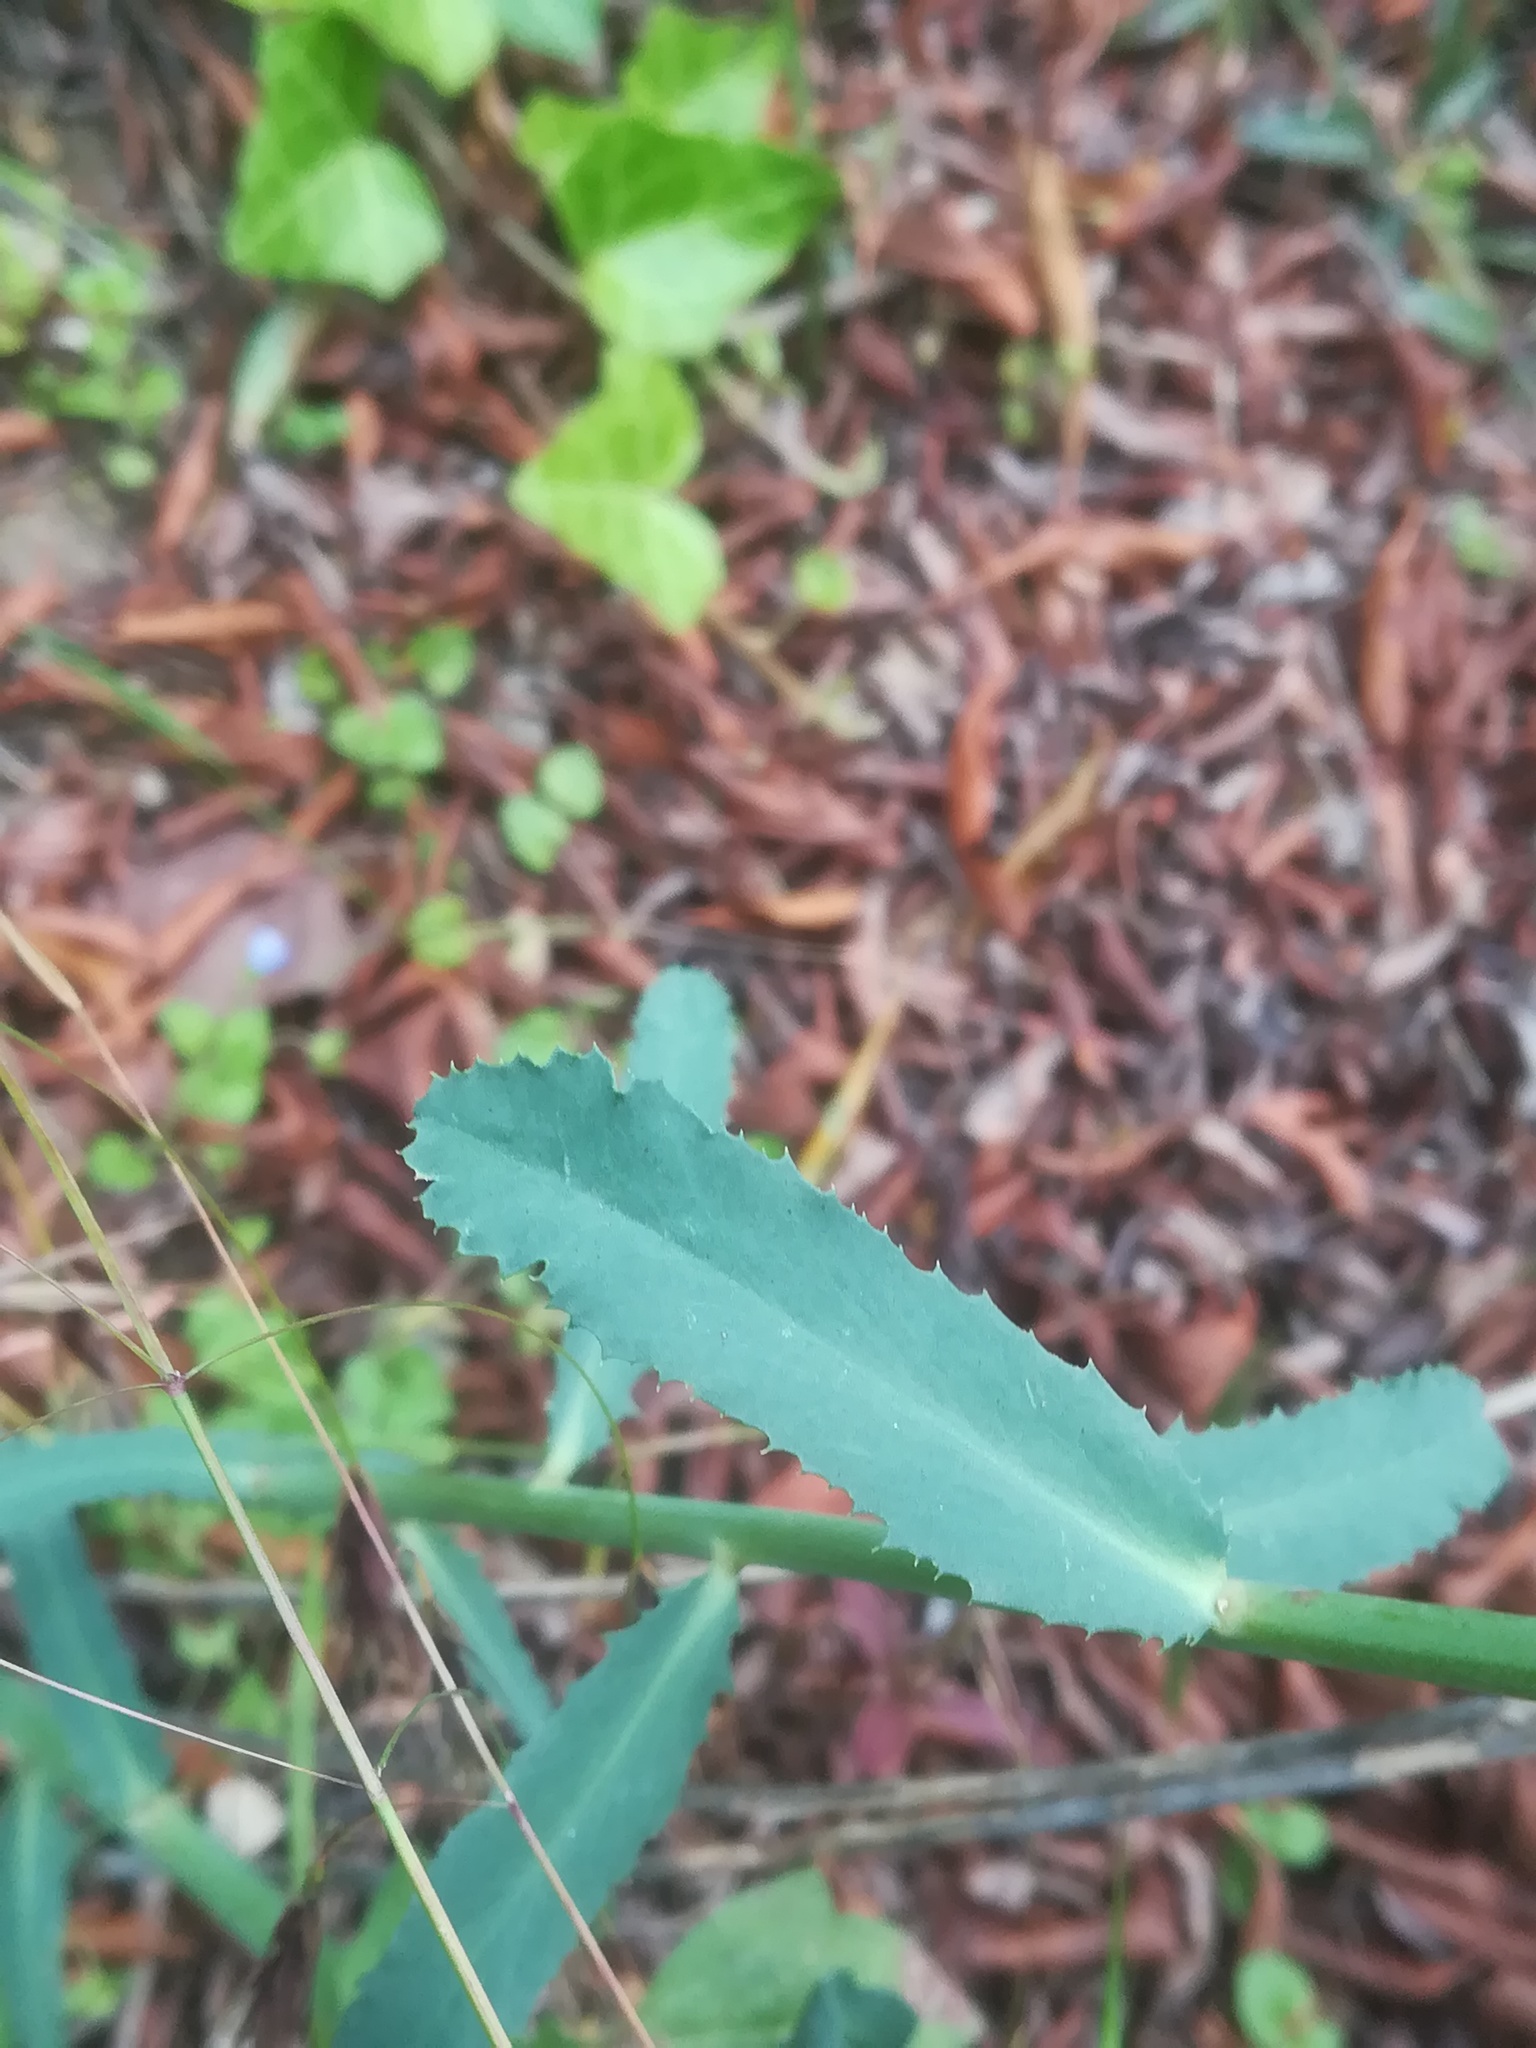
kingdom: Plantae
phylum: Tracheophyta
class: Magnoliopsida
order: Malpighiales
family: Euphorbiaceae
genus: Euphorbia
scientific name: Euphorbia serrata
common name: Serrate spurge
